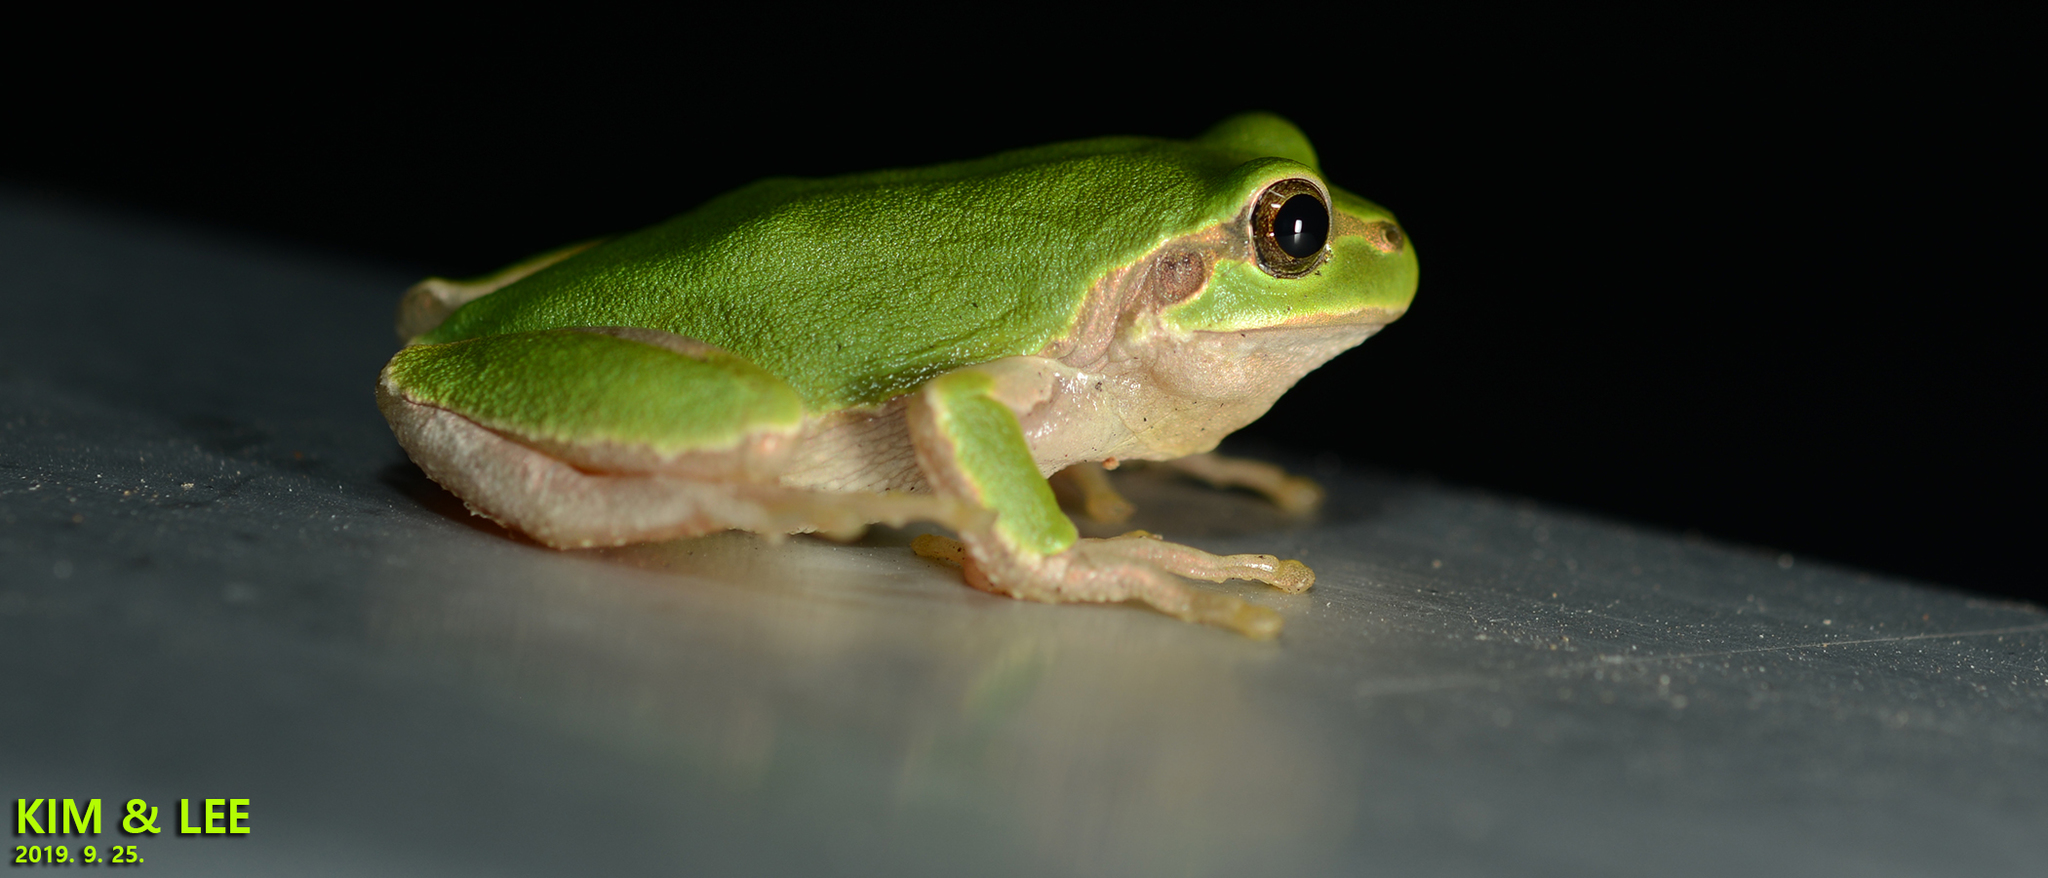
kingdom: Animalia
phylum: Chordata
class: Amphibia
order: Anura
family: Hylidae
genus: Dryophytes
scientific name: Dryophytes japonicus
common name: Japanese treefrog
